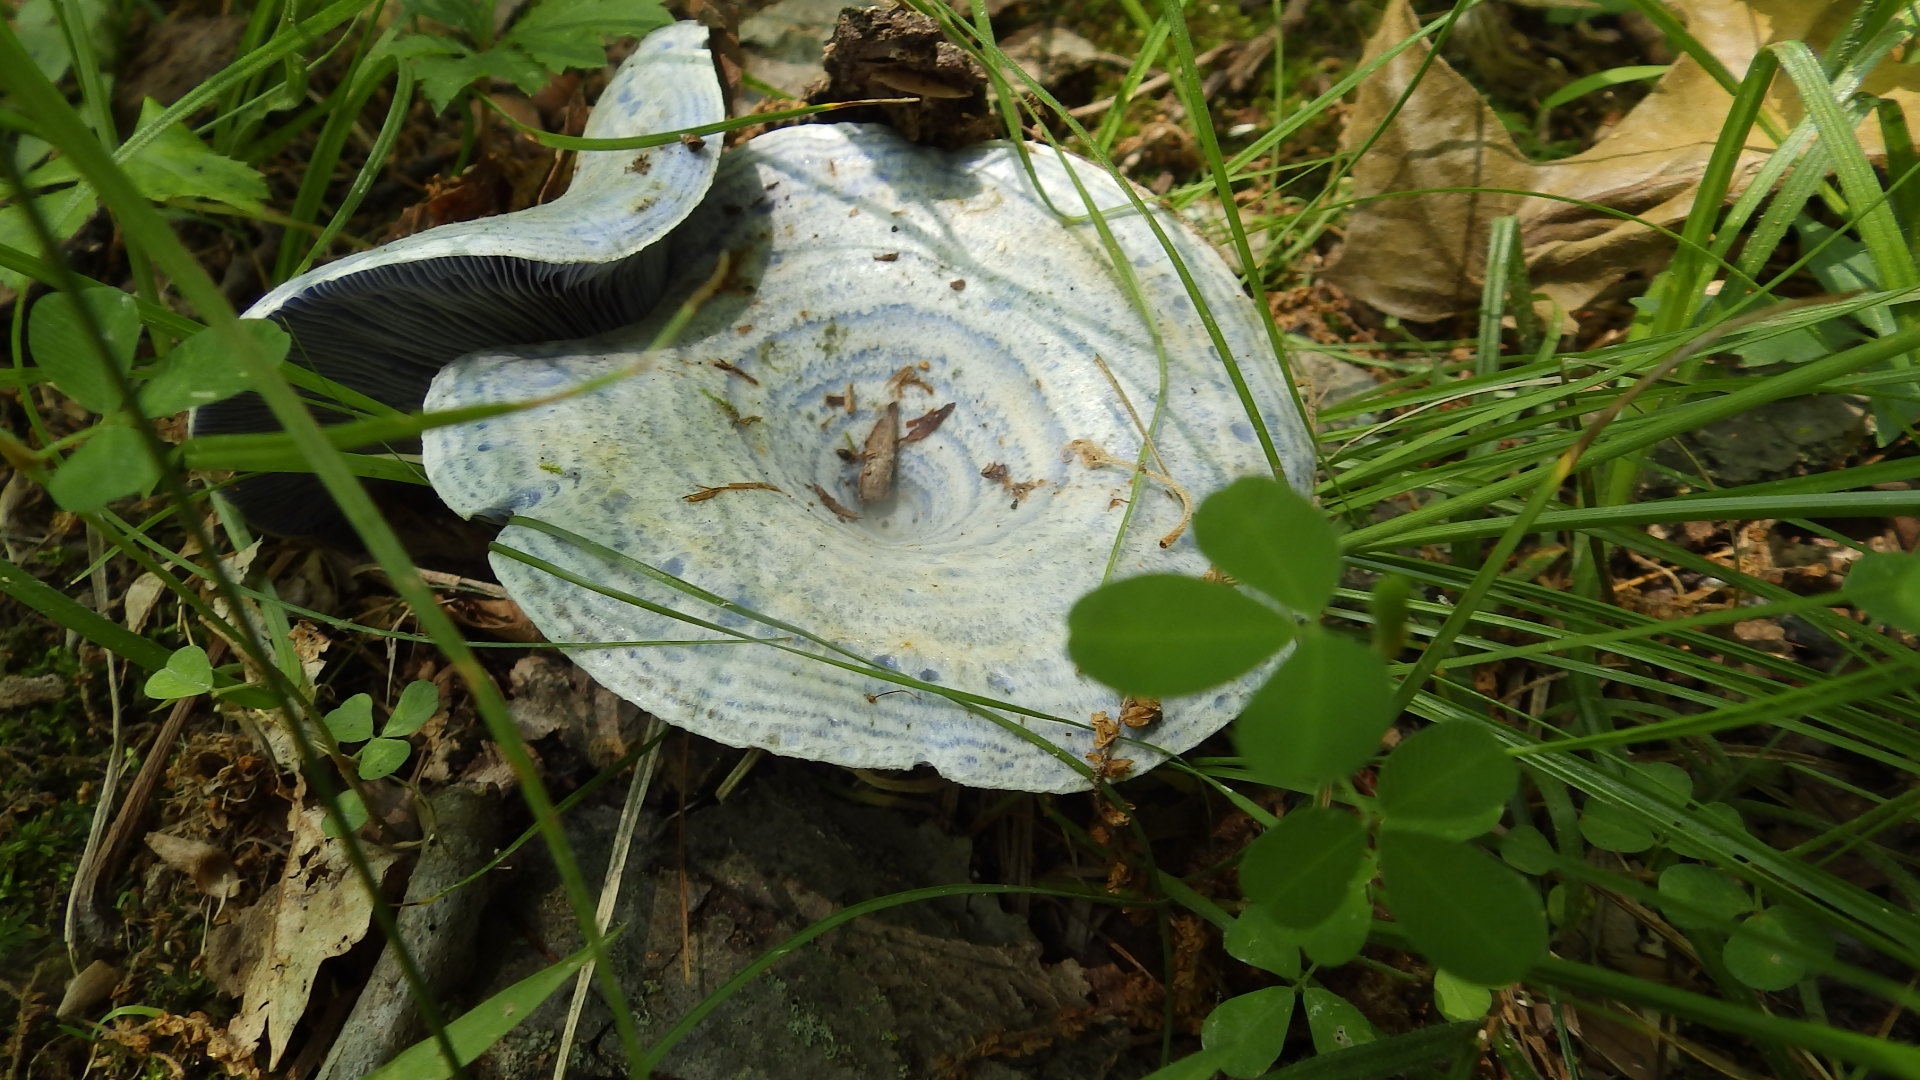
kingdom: Fungi
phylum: Basidiomycota
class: Agaricomycetes
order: Russulales
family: Russulaceae
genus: Lactarius
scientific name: Lactarius indigo
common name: Indigo milk cap
